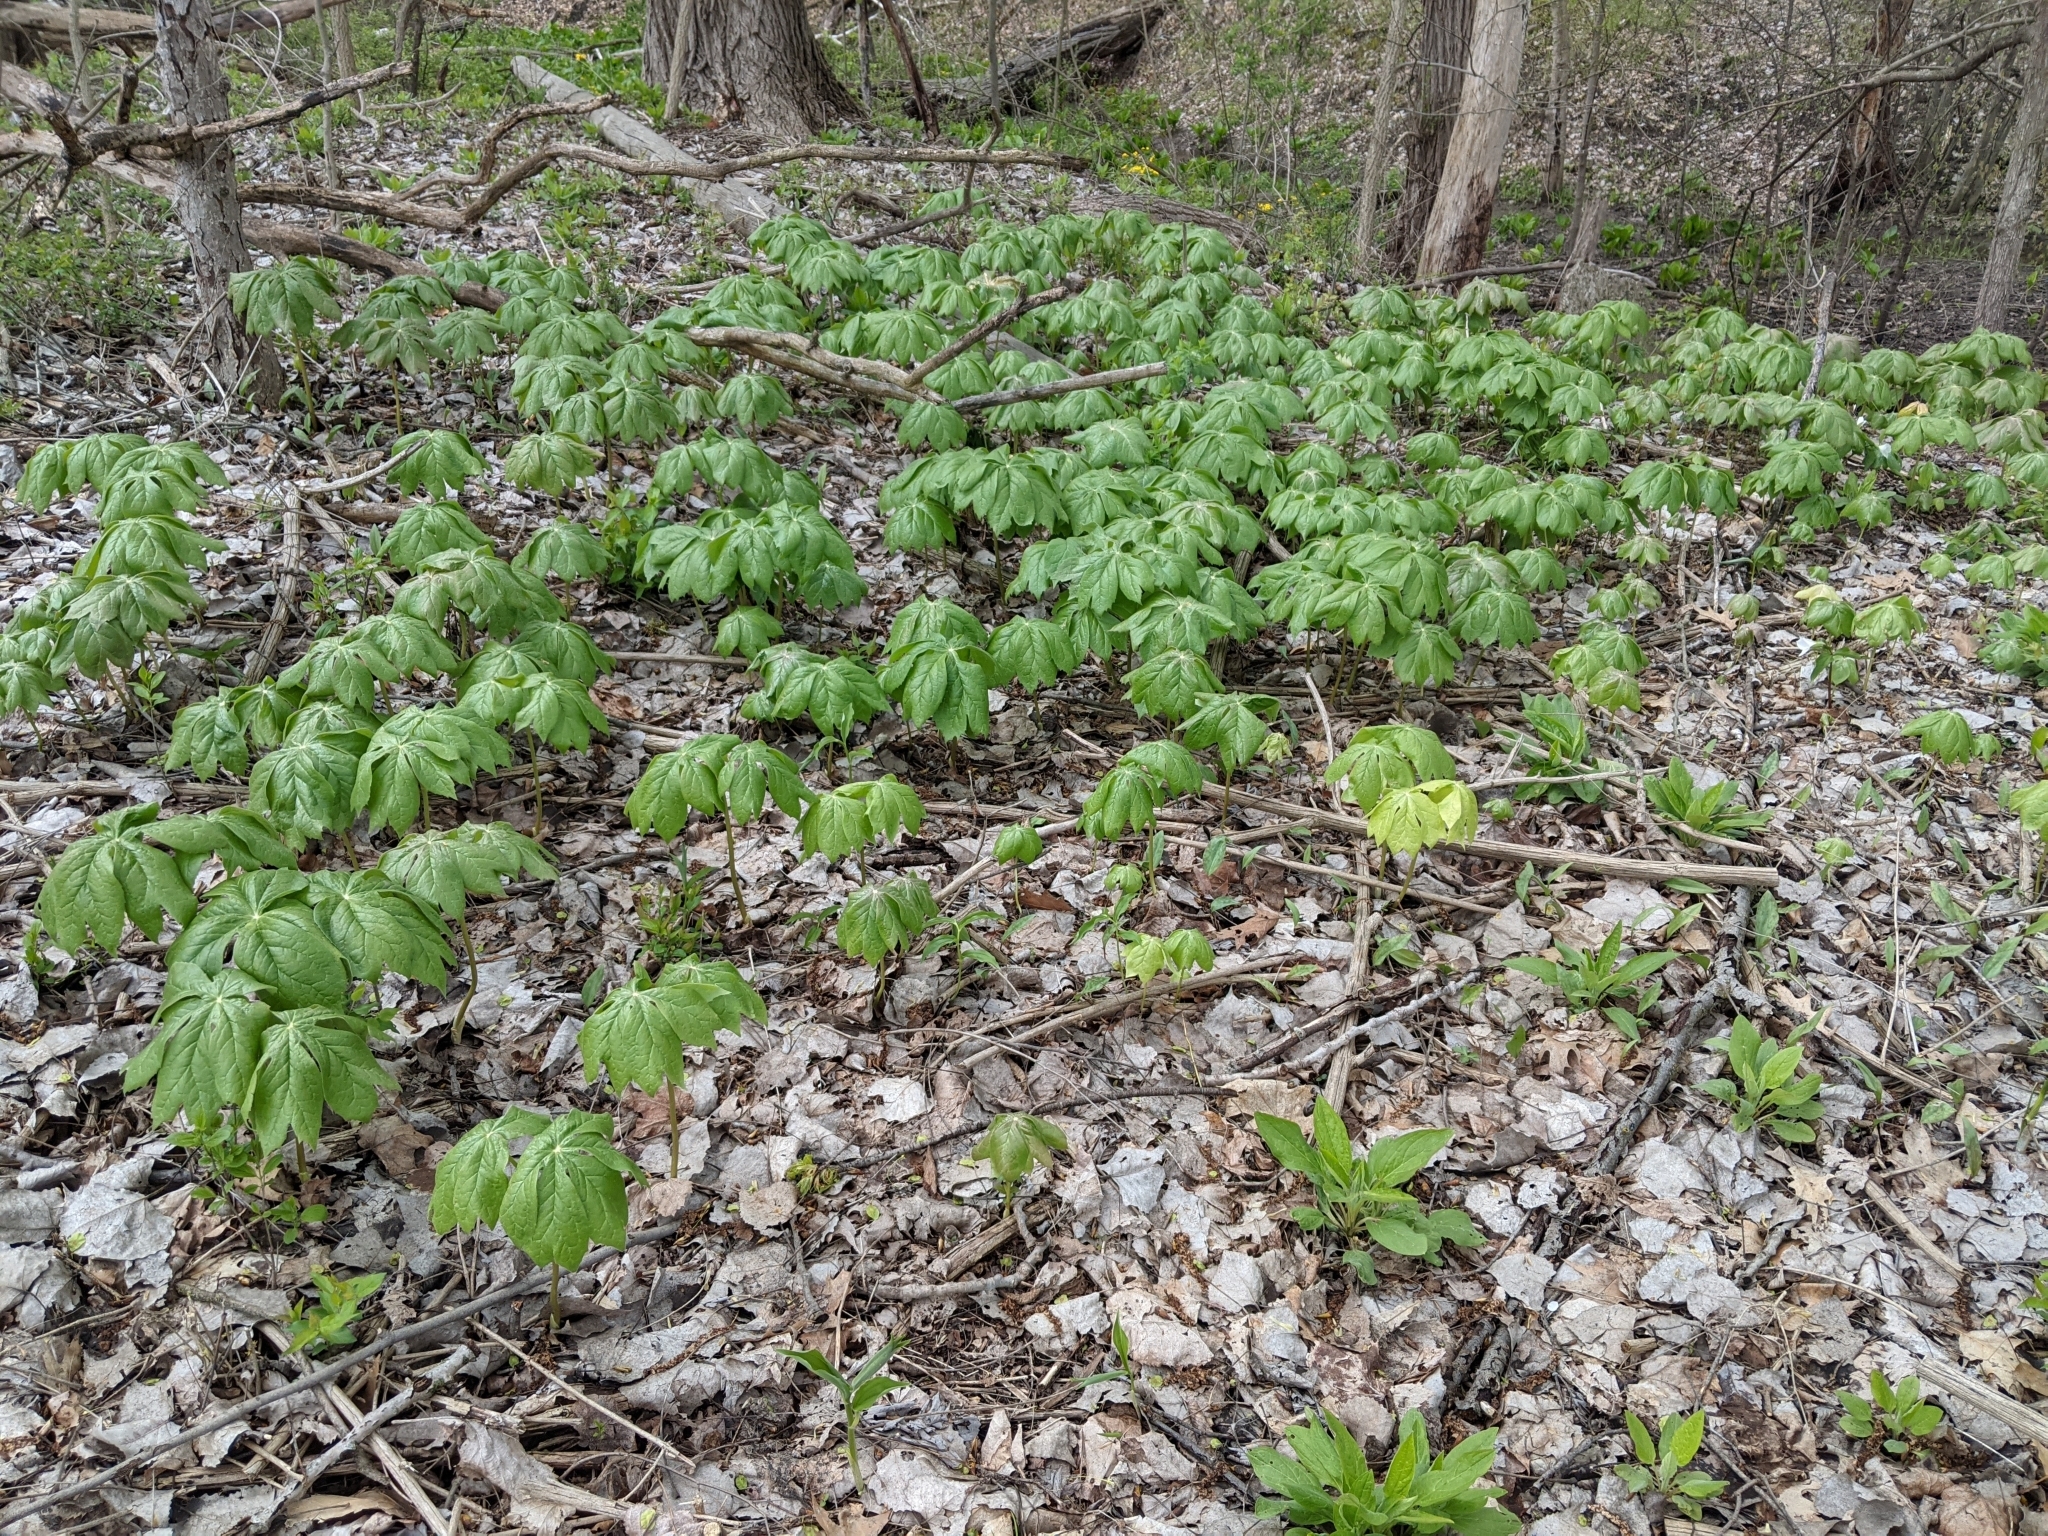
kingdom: Plantae
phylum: Tracheophyta
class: Magnoliopsida
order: Ranunculales
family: Berberidaceae
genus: Podophyllum
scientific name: Podophyllum peltatum
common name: Wild mandrake
